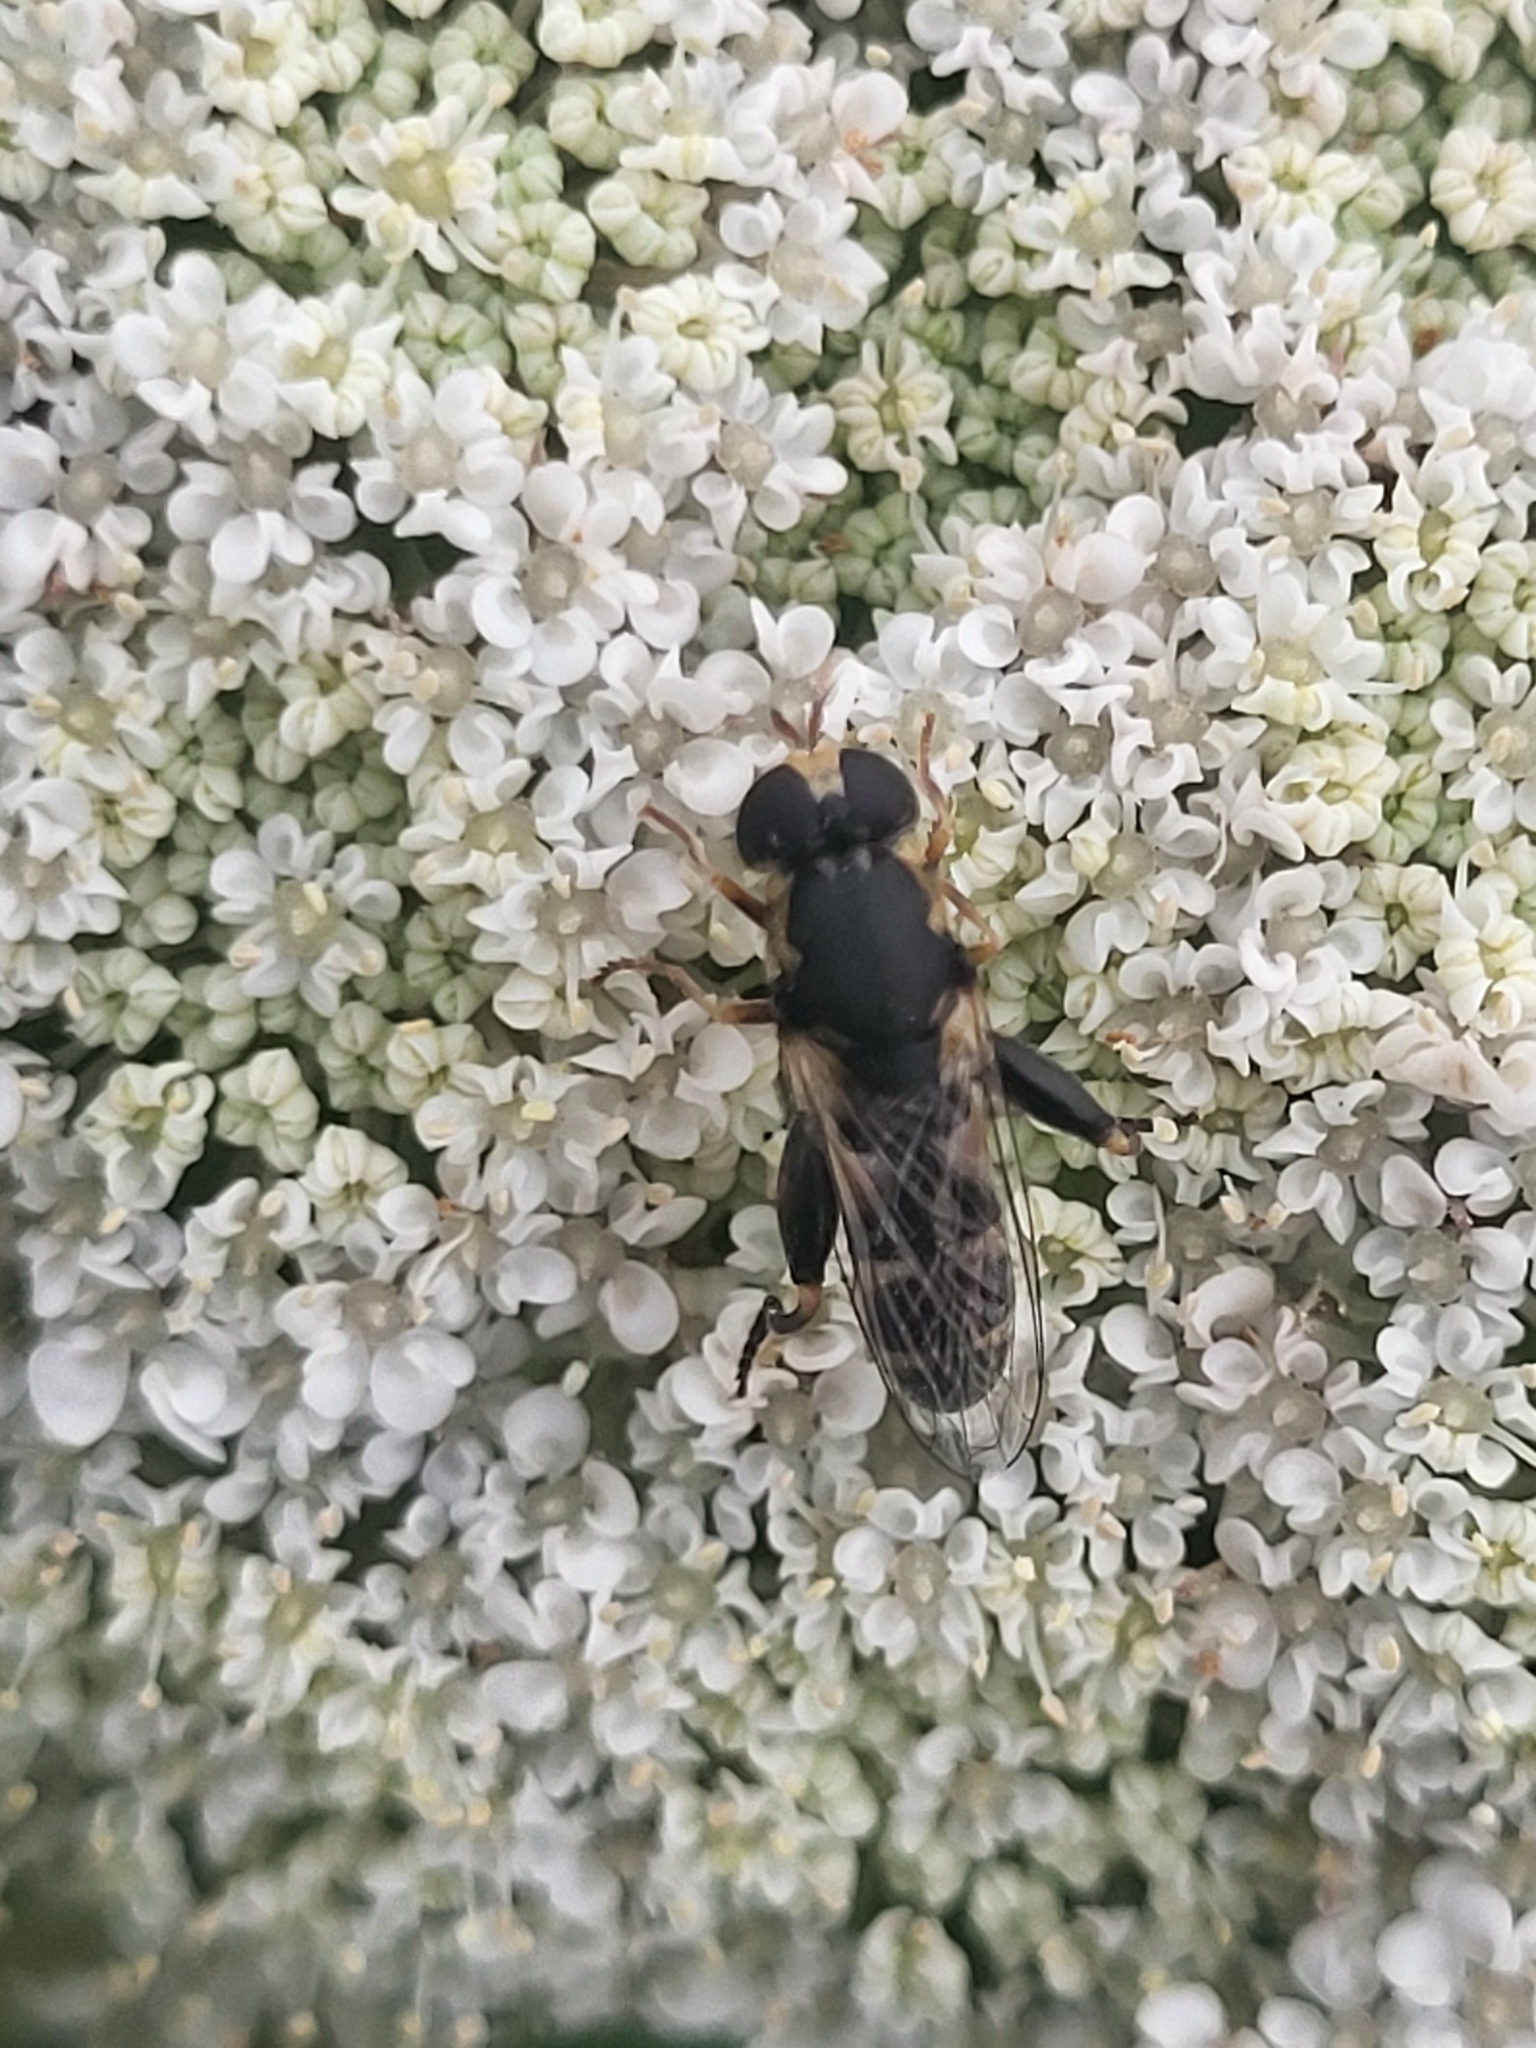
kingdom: Animalia
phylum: Arthropoda
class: Insecta
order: Diptera
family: Syrphidae
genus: Syritta
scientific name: Syritta pipiens
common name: Hover fly
